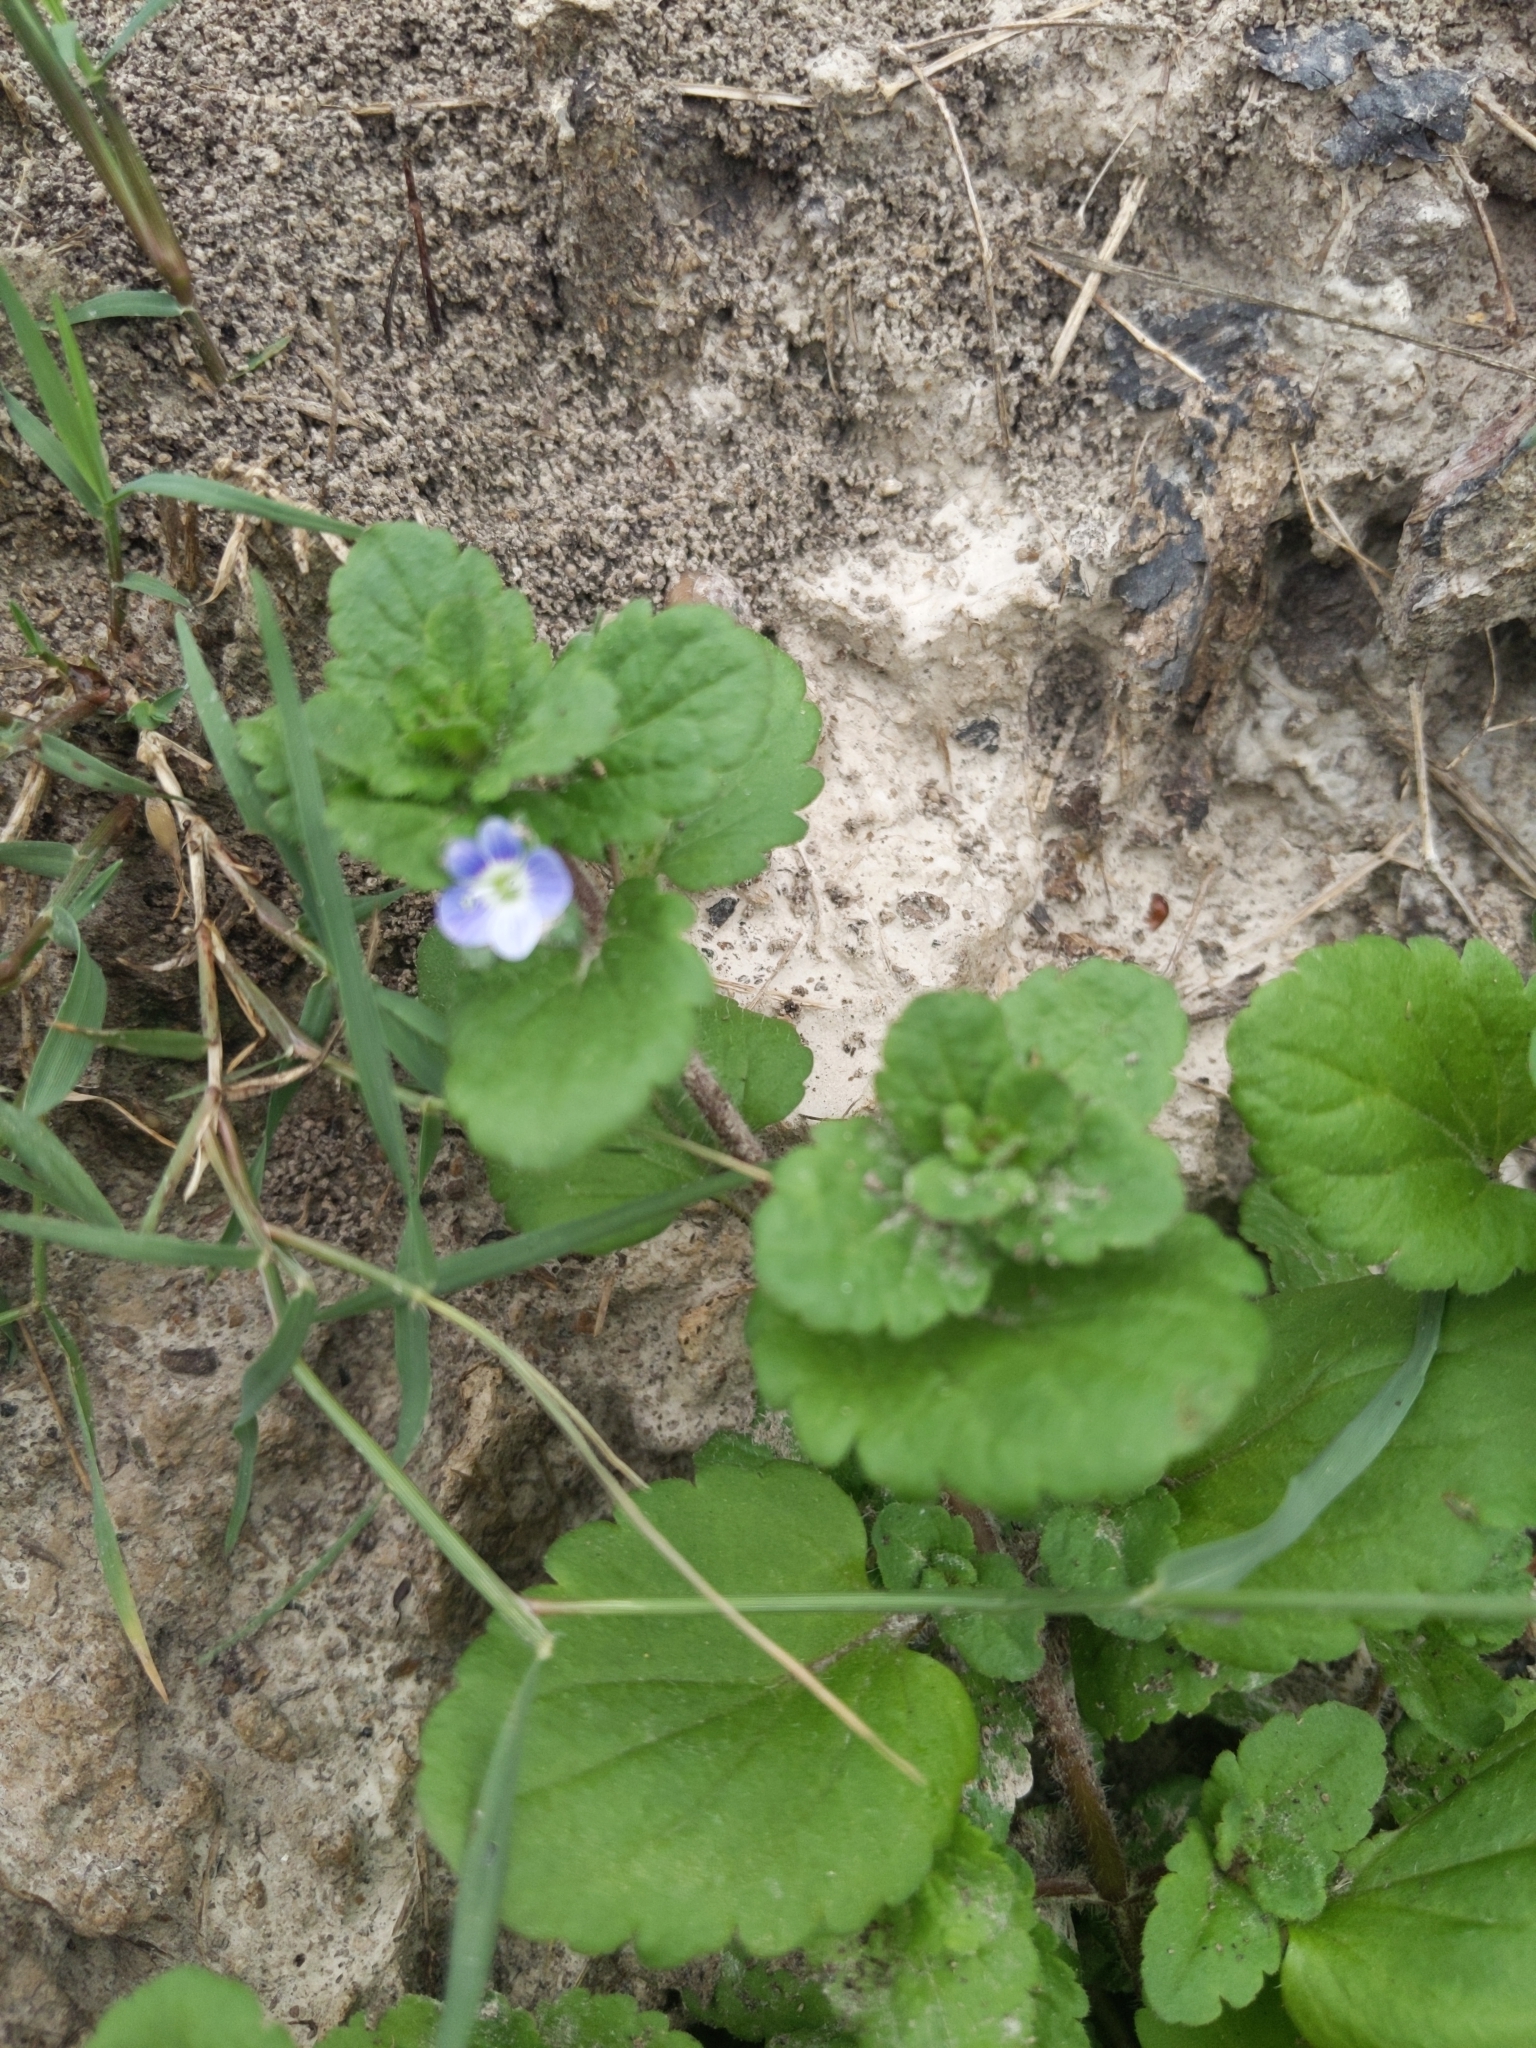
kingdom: Plantae
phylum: Tracheophyta
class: Magnoliopsida
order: Lamiales
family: Plantaginaceae
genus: Veronica
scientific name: Veronica persica
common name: Common field-speedwell
